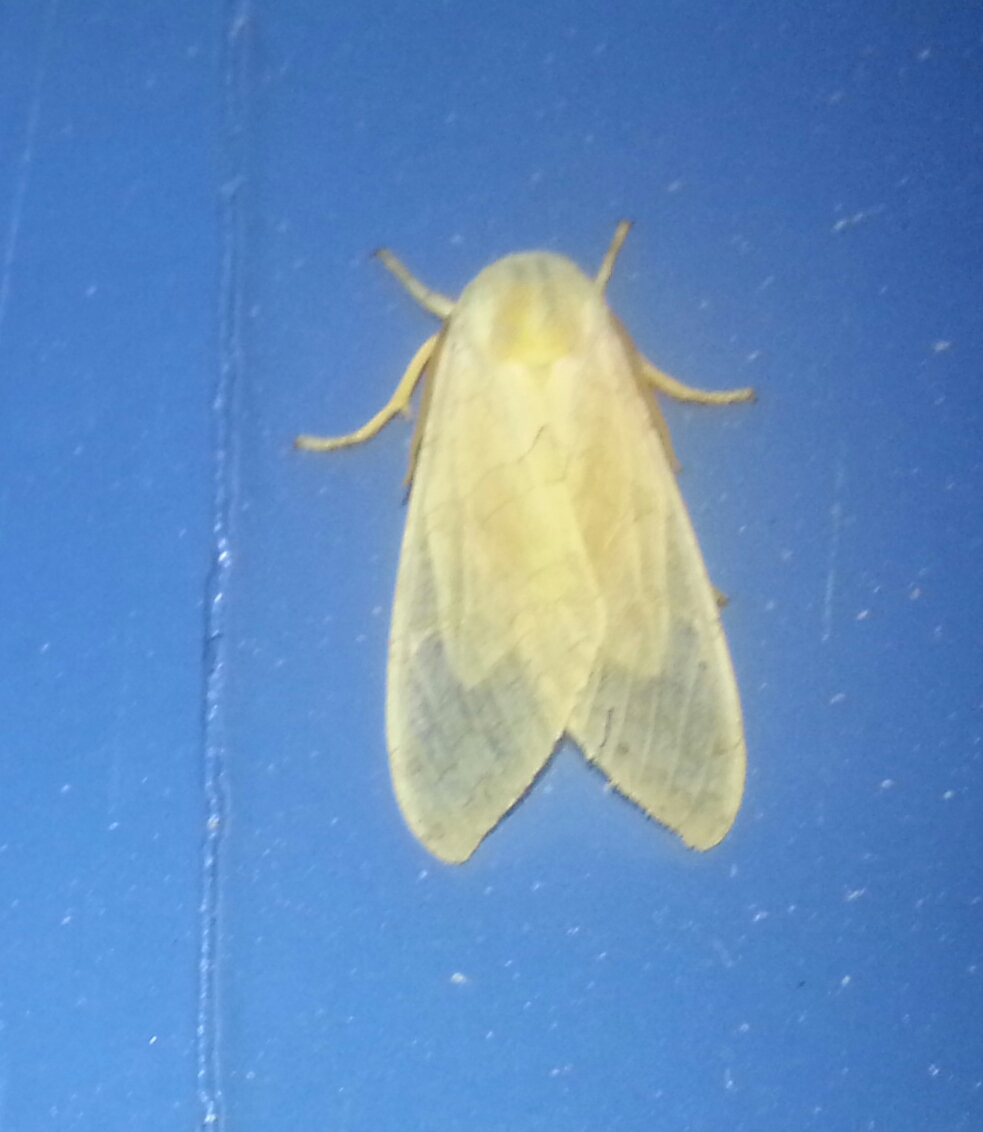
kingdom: Animalia
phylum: Arthropoda
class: Insecta
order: Lepidoptera
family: Erebidae
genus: Halysidota
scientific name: Halysidota tessellaris
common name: Banded tussock moth
